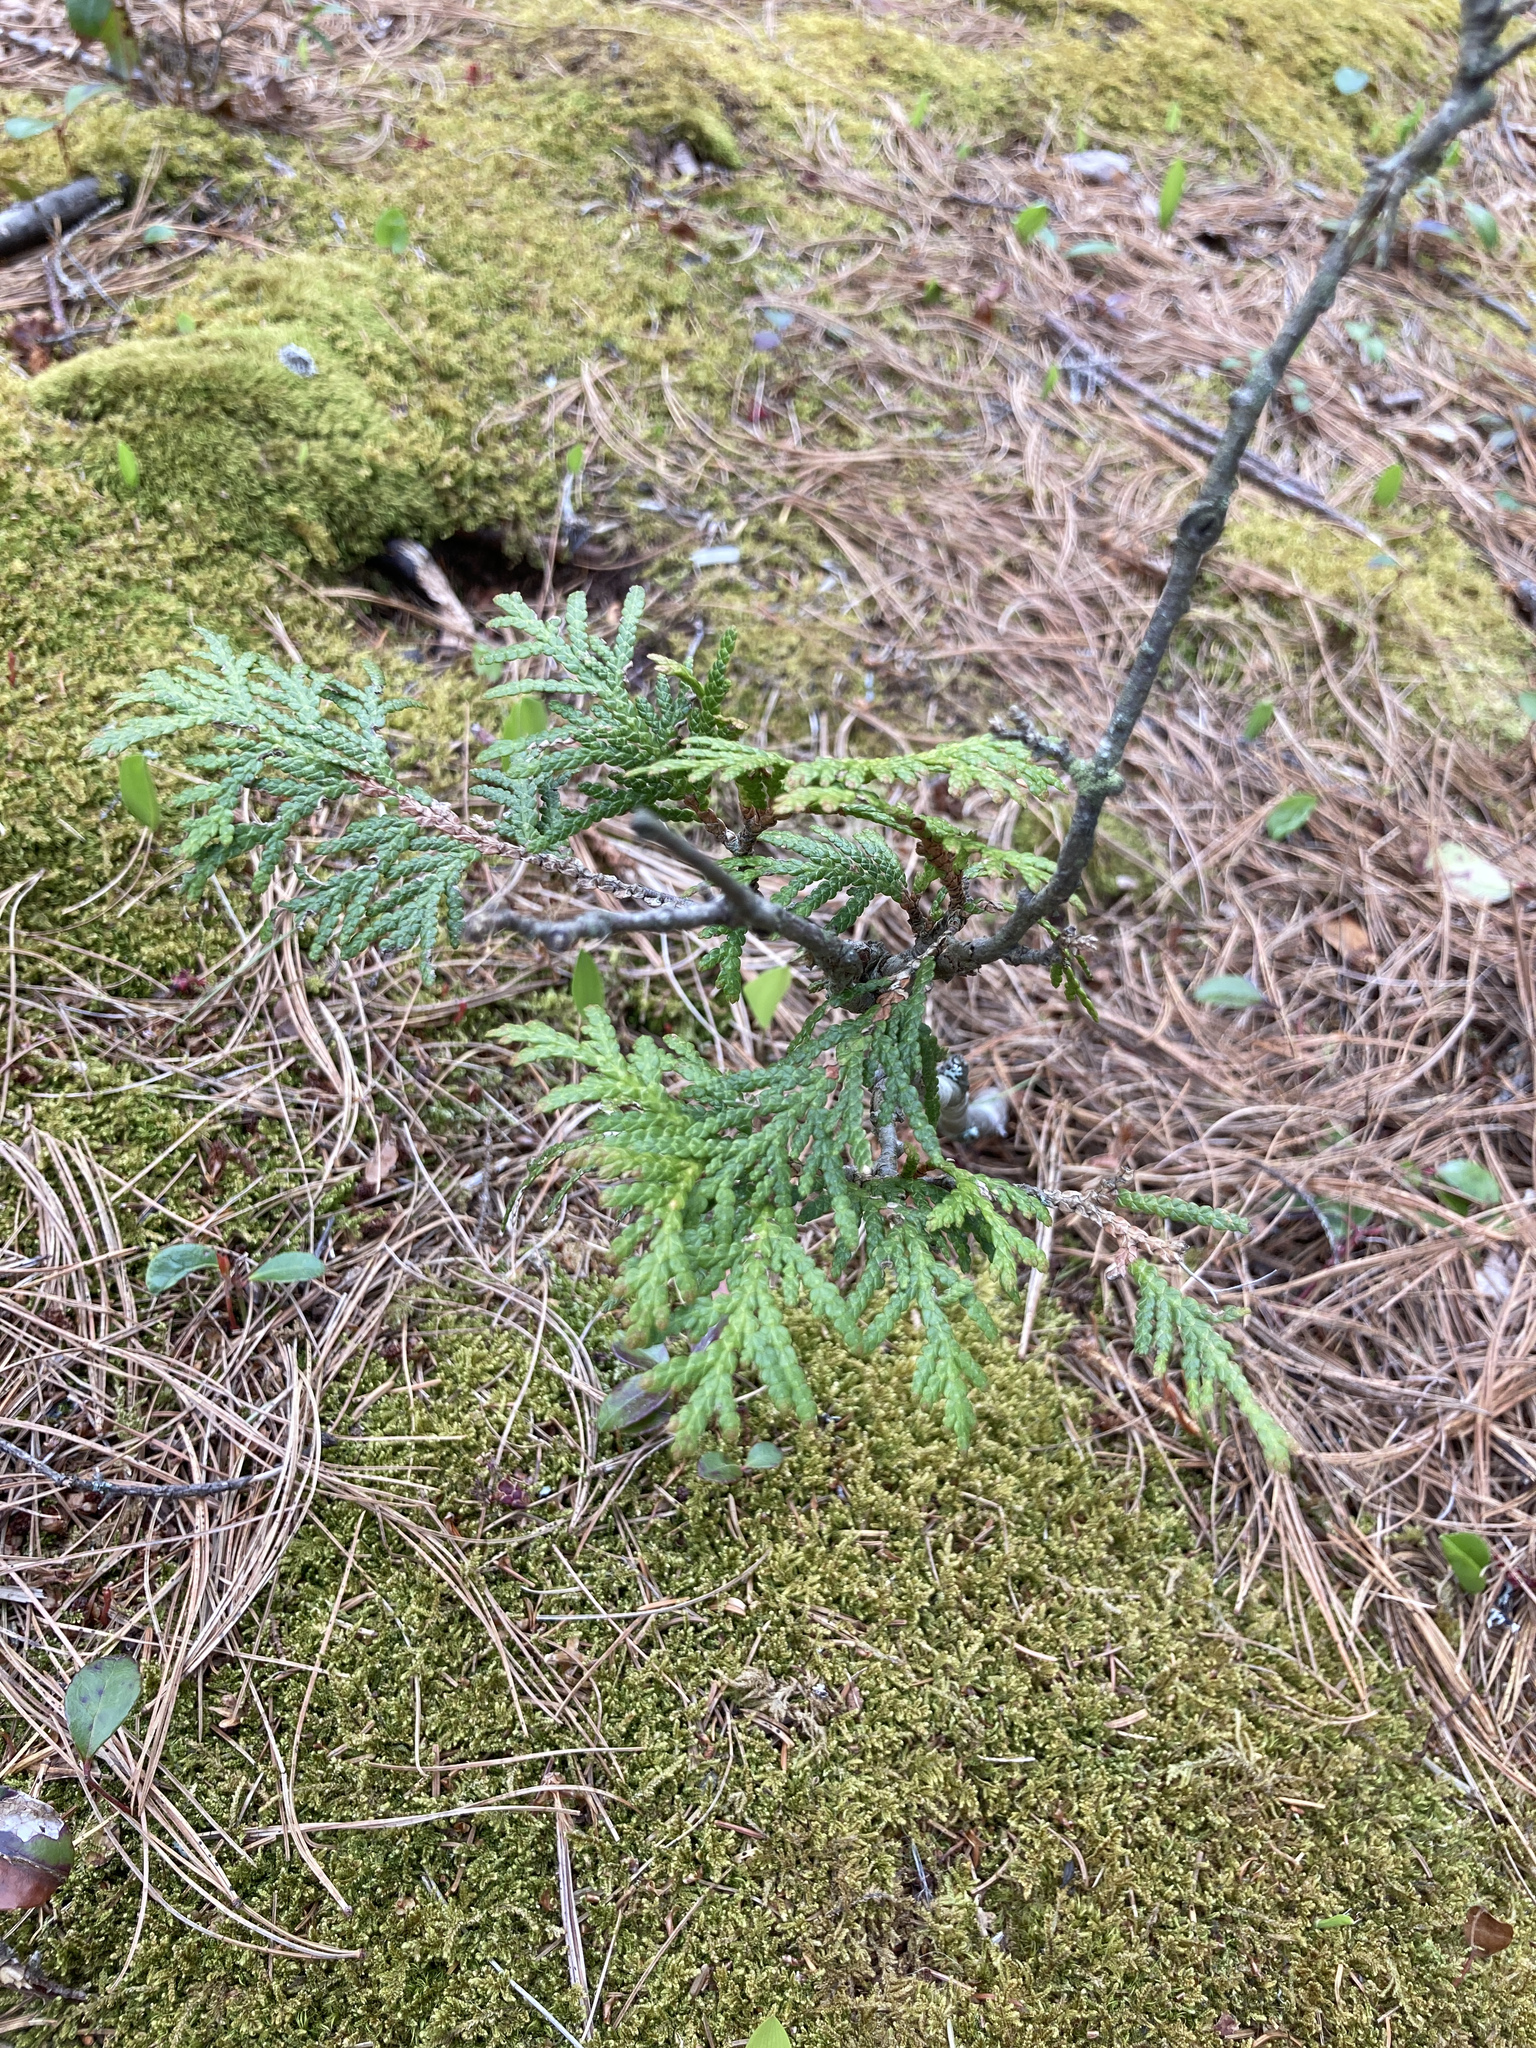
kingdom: Plantae
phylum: Tracheophyta
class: Pinopsida
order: Pinales
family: Cupressaceae
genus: Thuja
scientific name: Thuja occidentalis
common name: Northern white-cedar
